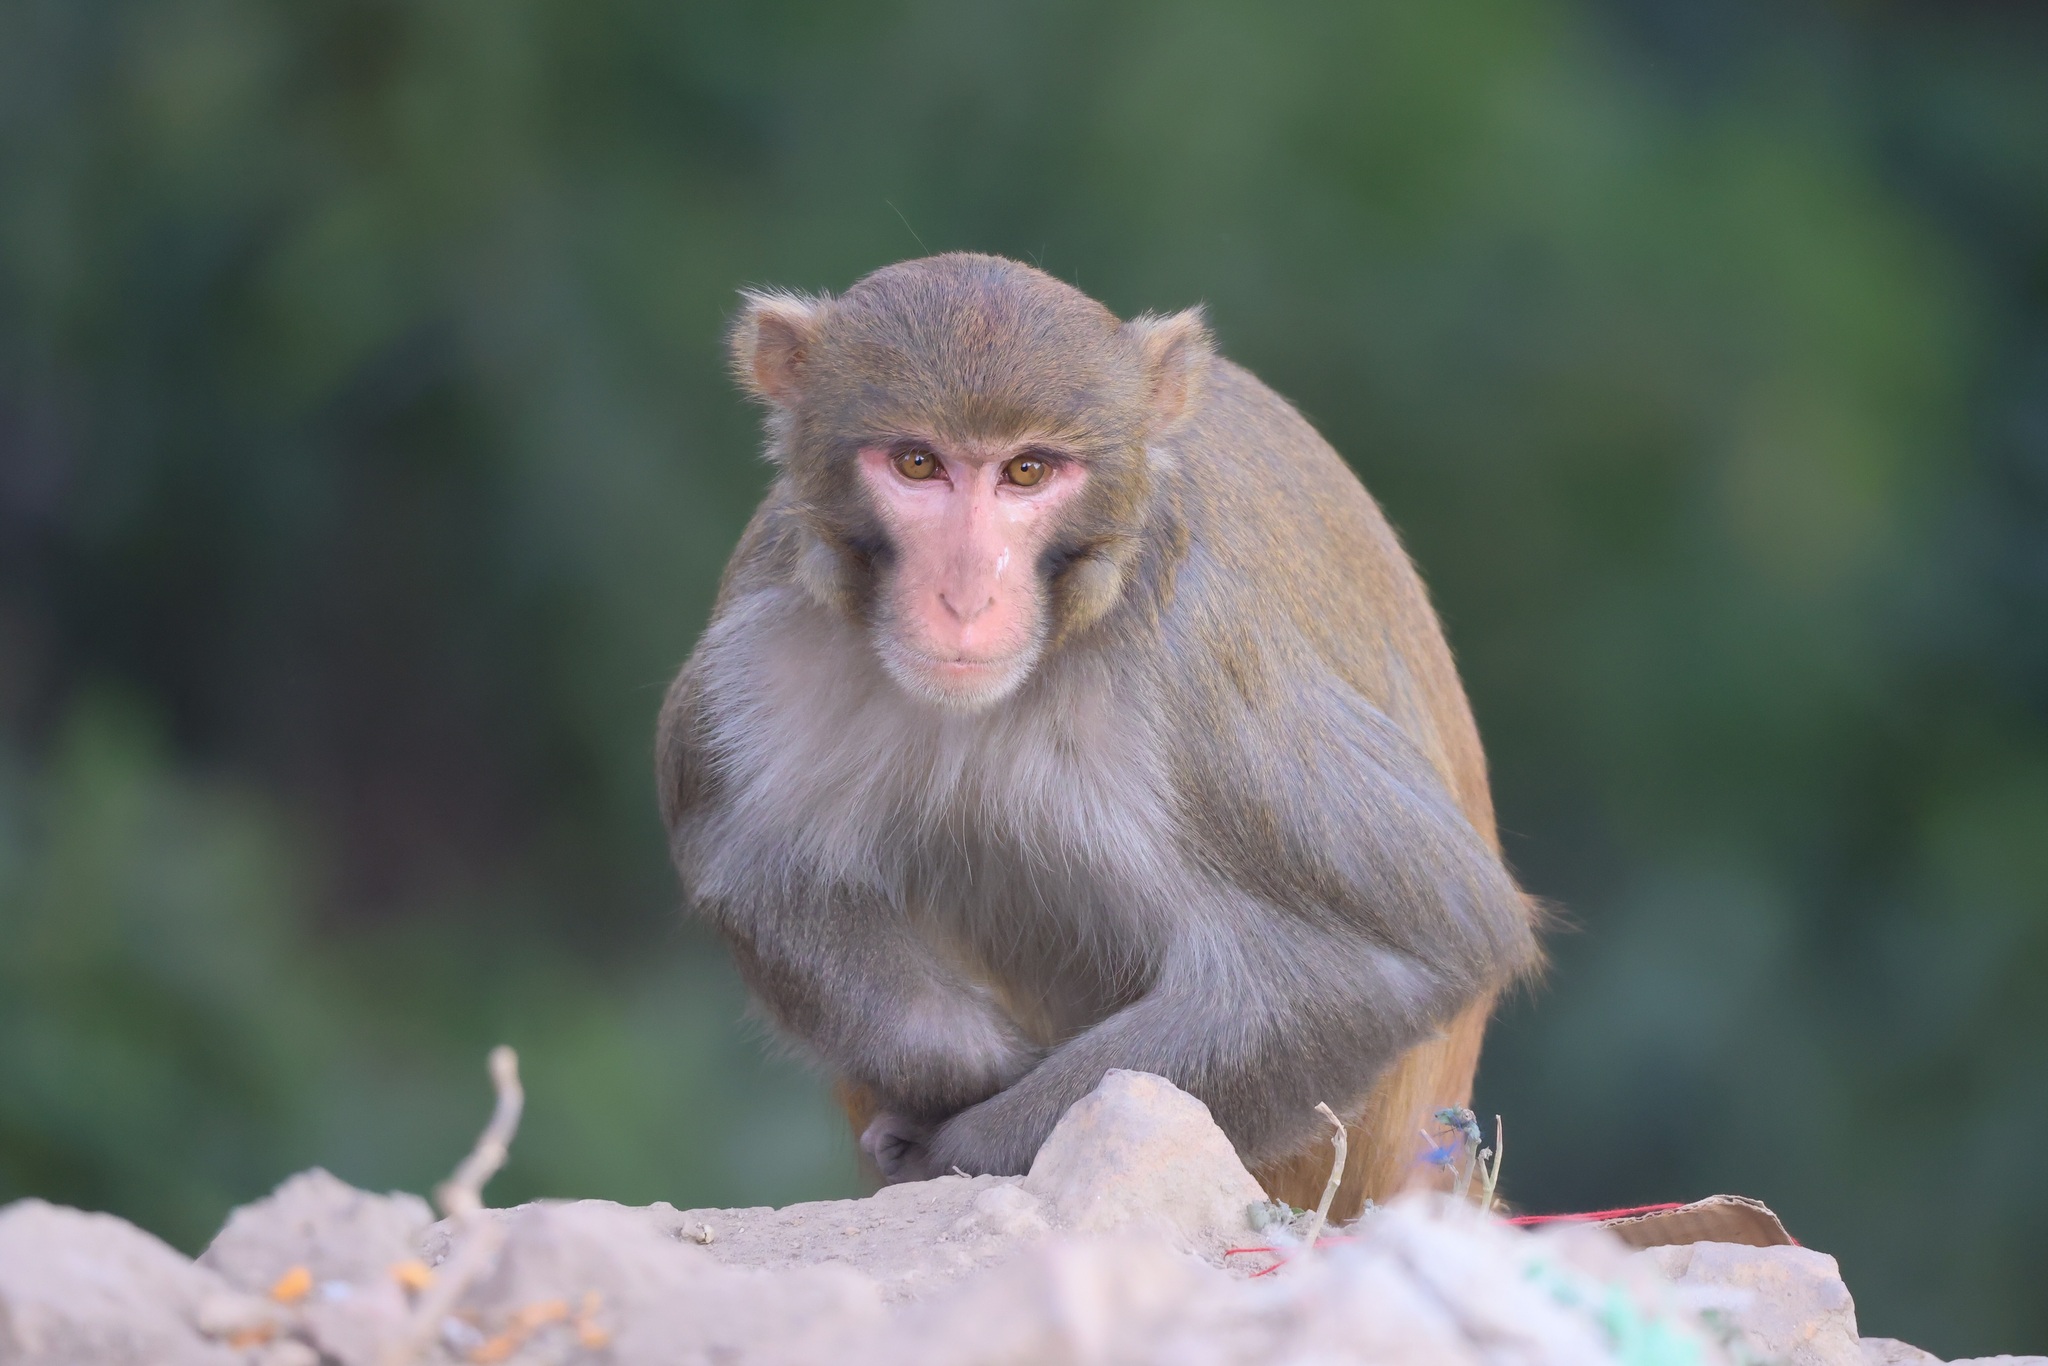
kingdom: Animalia
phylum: Chordata
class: Mammalia
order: Primates
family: Cercopithecidae
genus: Macaca
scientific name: Macaca mulatta
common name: Rhesus monkey
